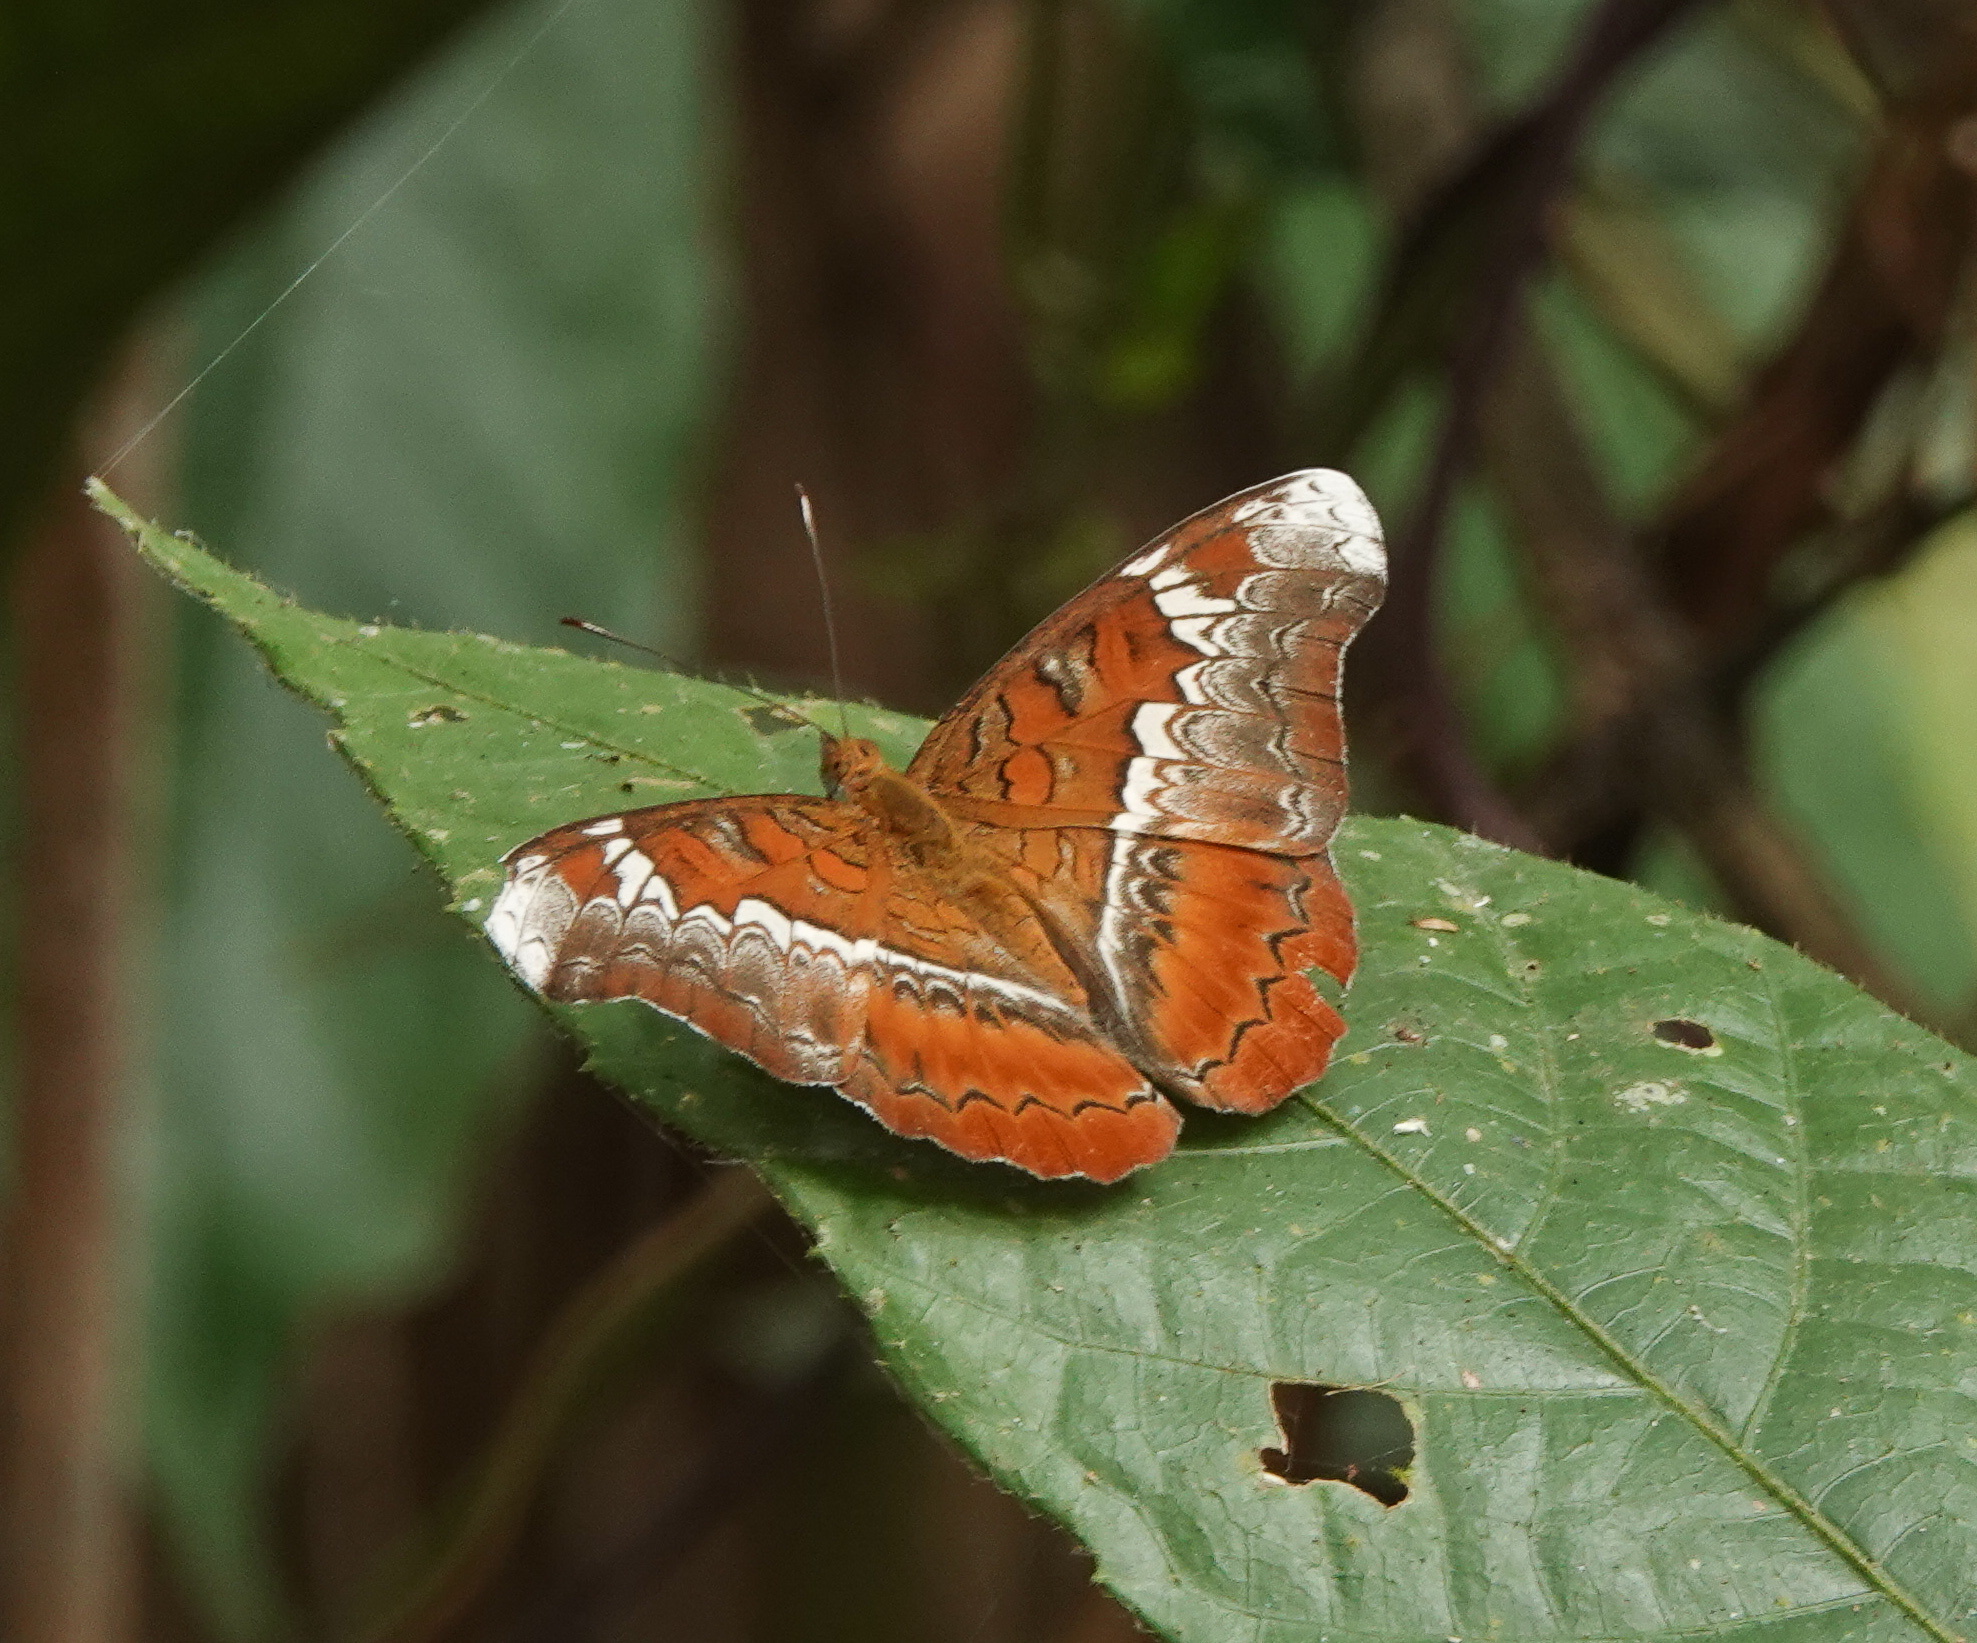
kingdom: Animalia
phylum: Arthropoda
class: Insecta
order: Lepidoptera
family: Nymphalidae
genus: Lebadea
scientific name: Lebadea martha
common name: Knight
